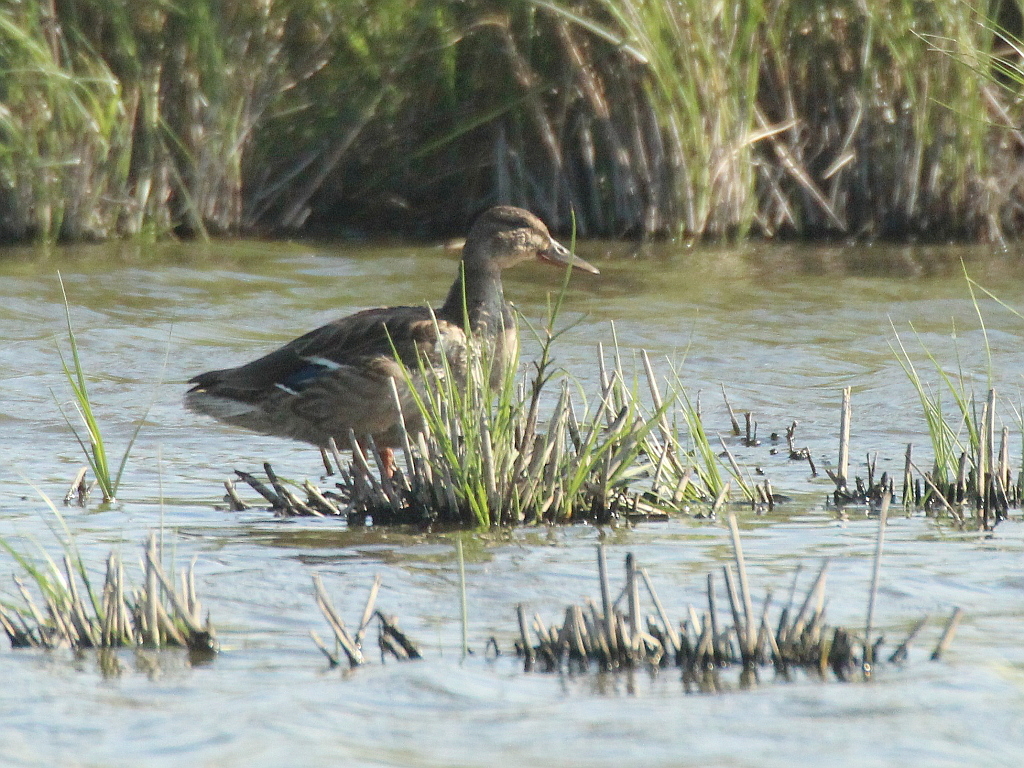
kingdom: Animalia
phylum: Chordata
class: Aves
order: Anseriformes
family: Anatidae
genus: Anas
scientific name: Anas platyrhynchos
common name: Mallard
